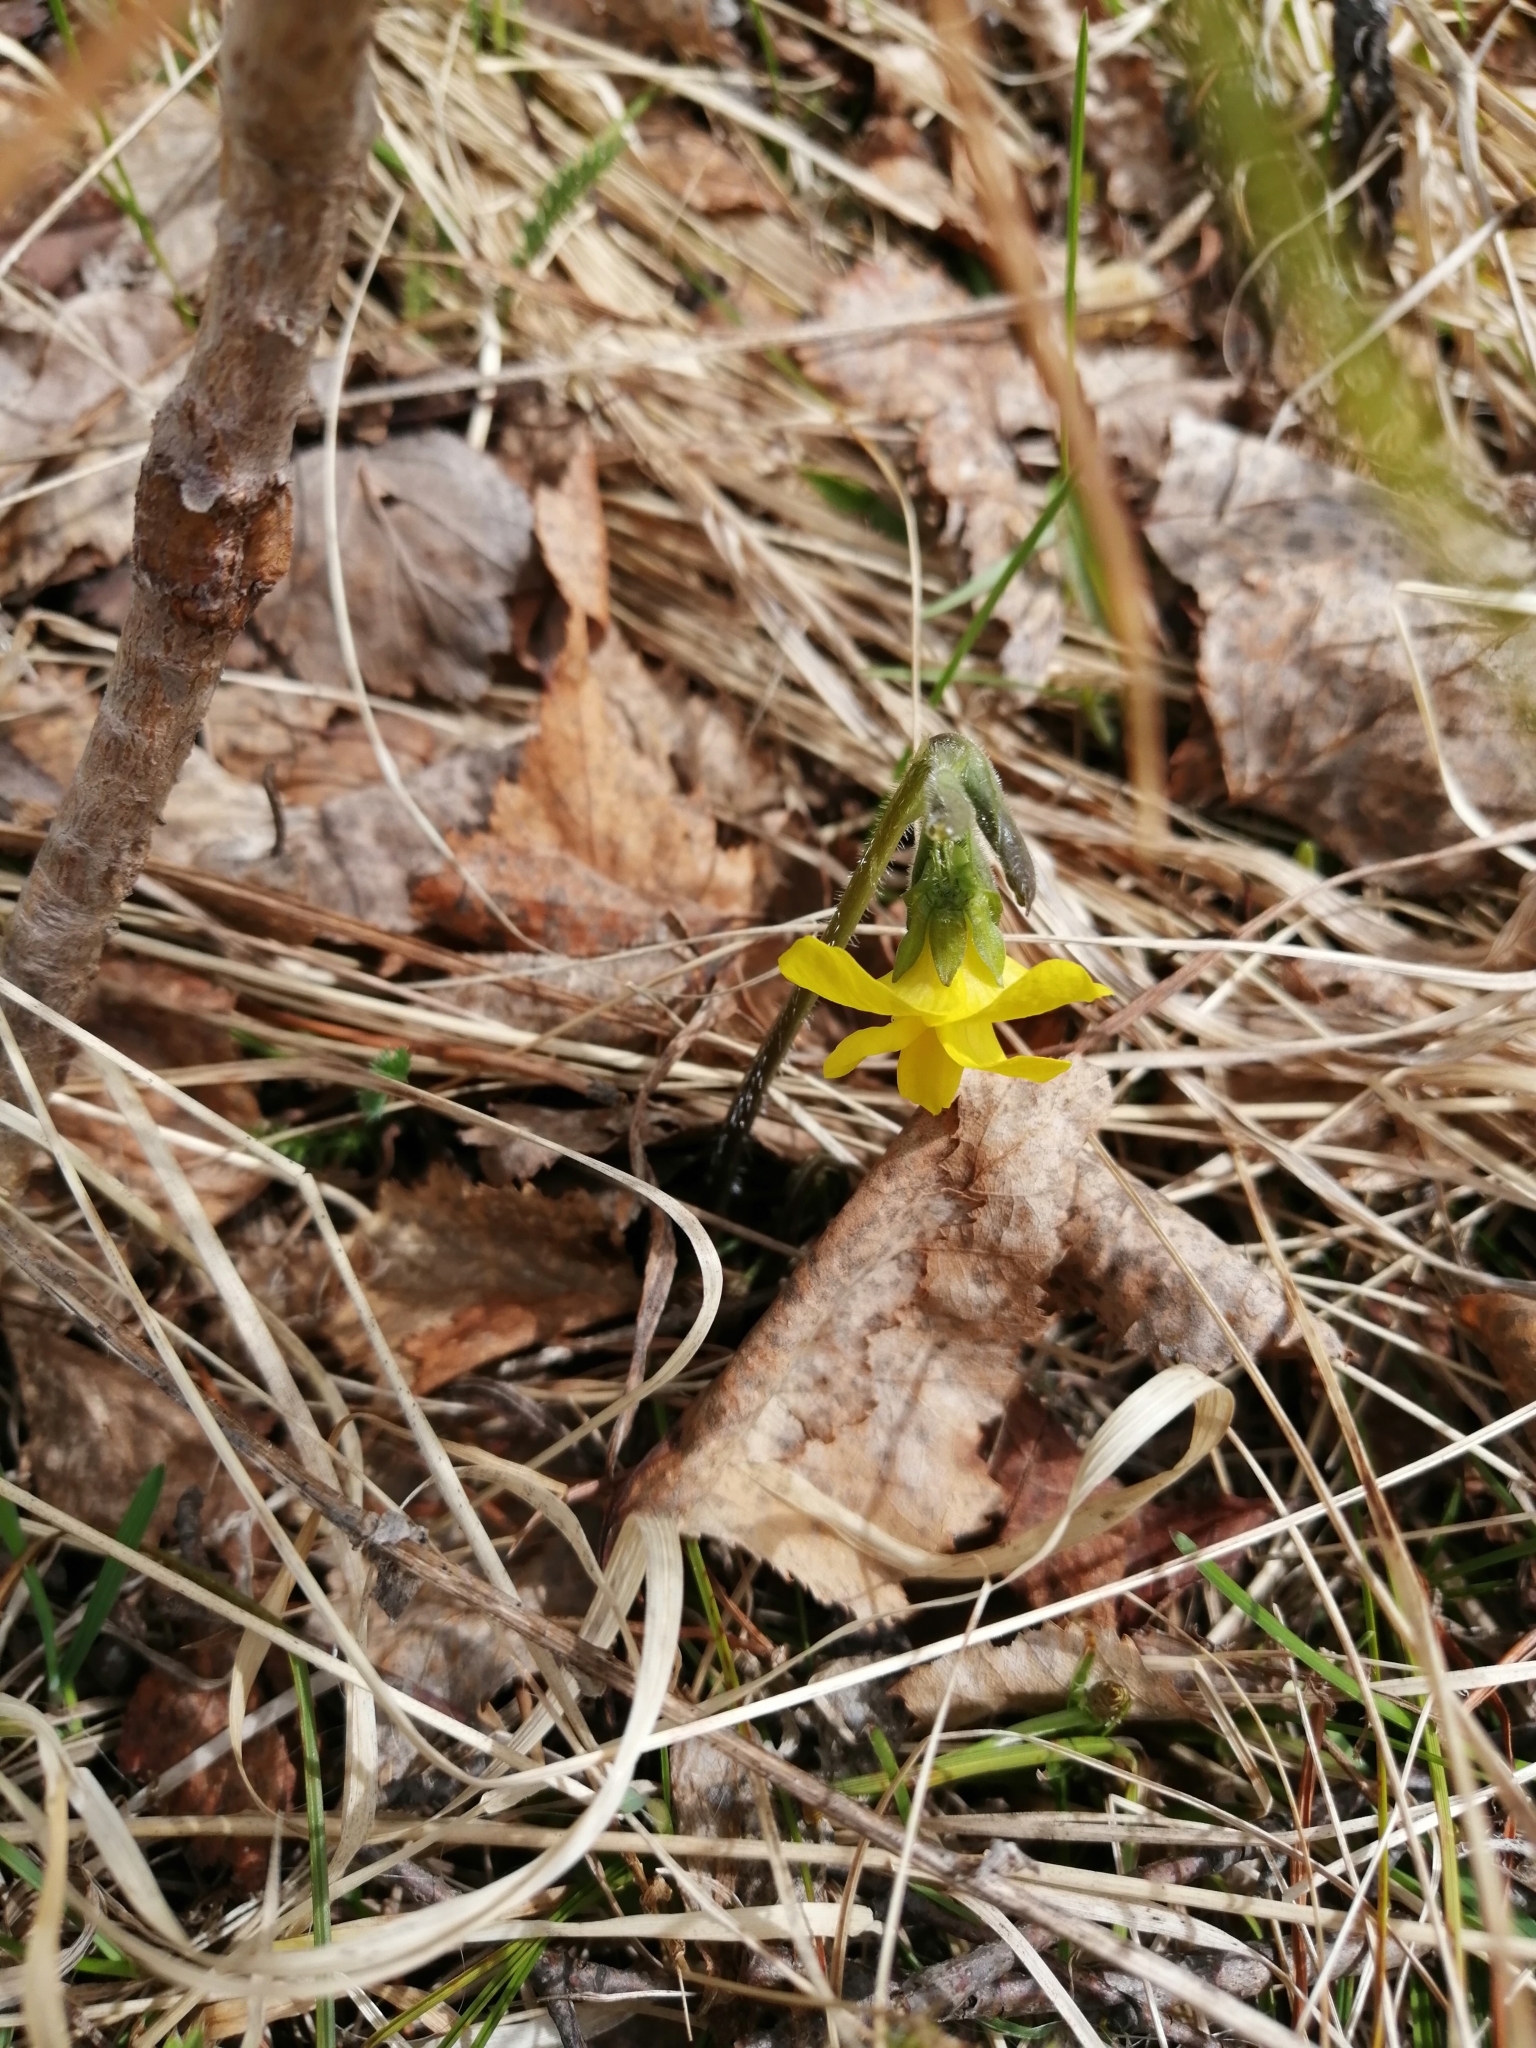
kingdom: Plantae
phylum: Tracheophyta
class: Magnoliopsida
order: Malpighiales
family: Violaceae
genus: Viola
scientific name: Viola uniflora
